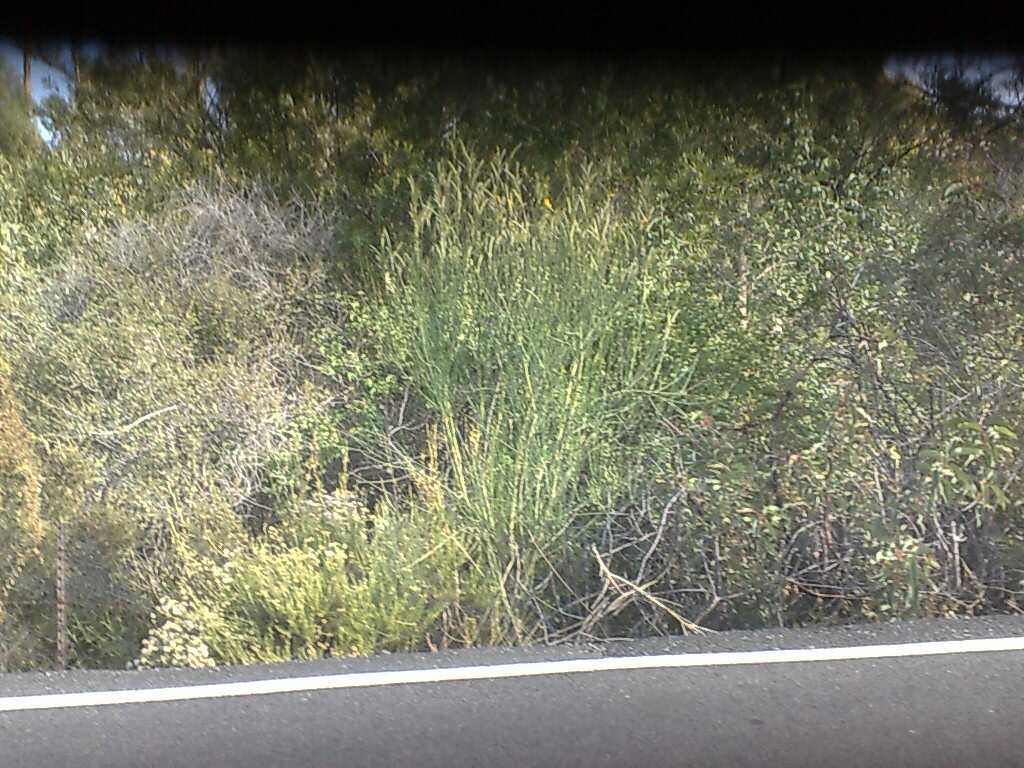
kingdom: Plantae
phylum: Tracheophyta
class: Magnoliopsida
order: Fabales
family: Fabaceae
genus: Spartium
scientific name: Spartium junceum
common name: Spanish broom
